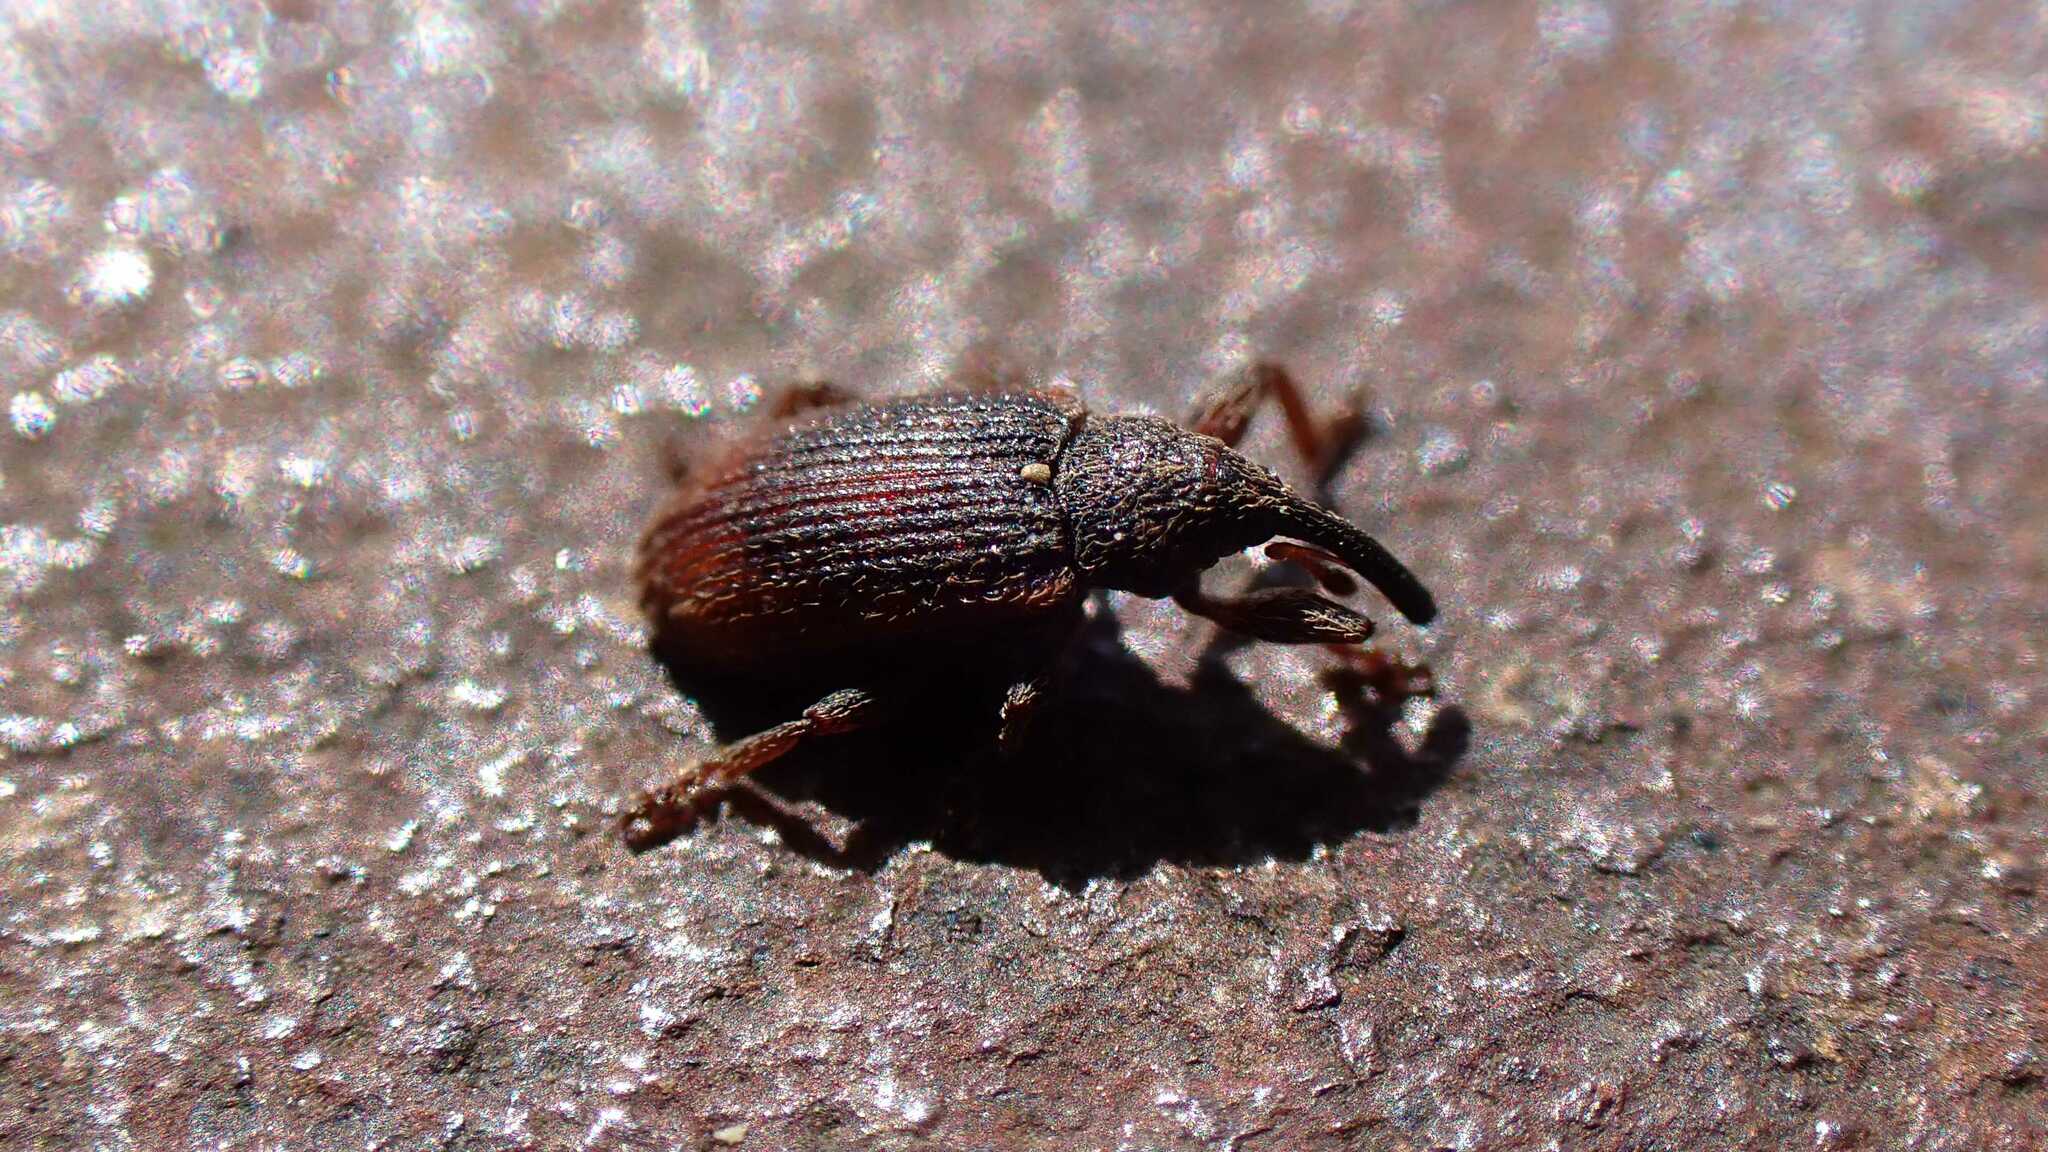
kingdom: Animalia
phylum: Arthropoda
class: Insecta
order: Coleoptera
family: Curculionidae
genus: Bradybatus
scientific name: Bradybatus kellneri
